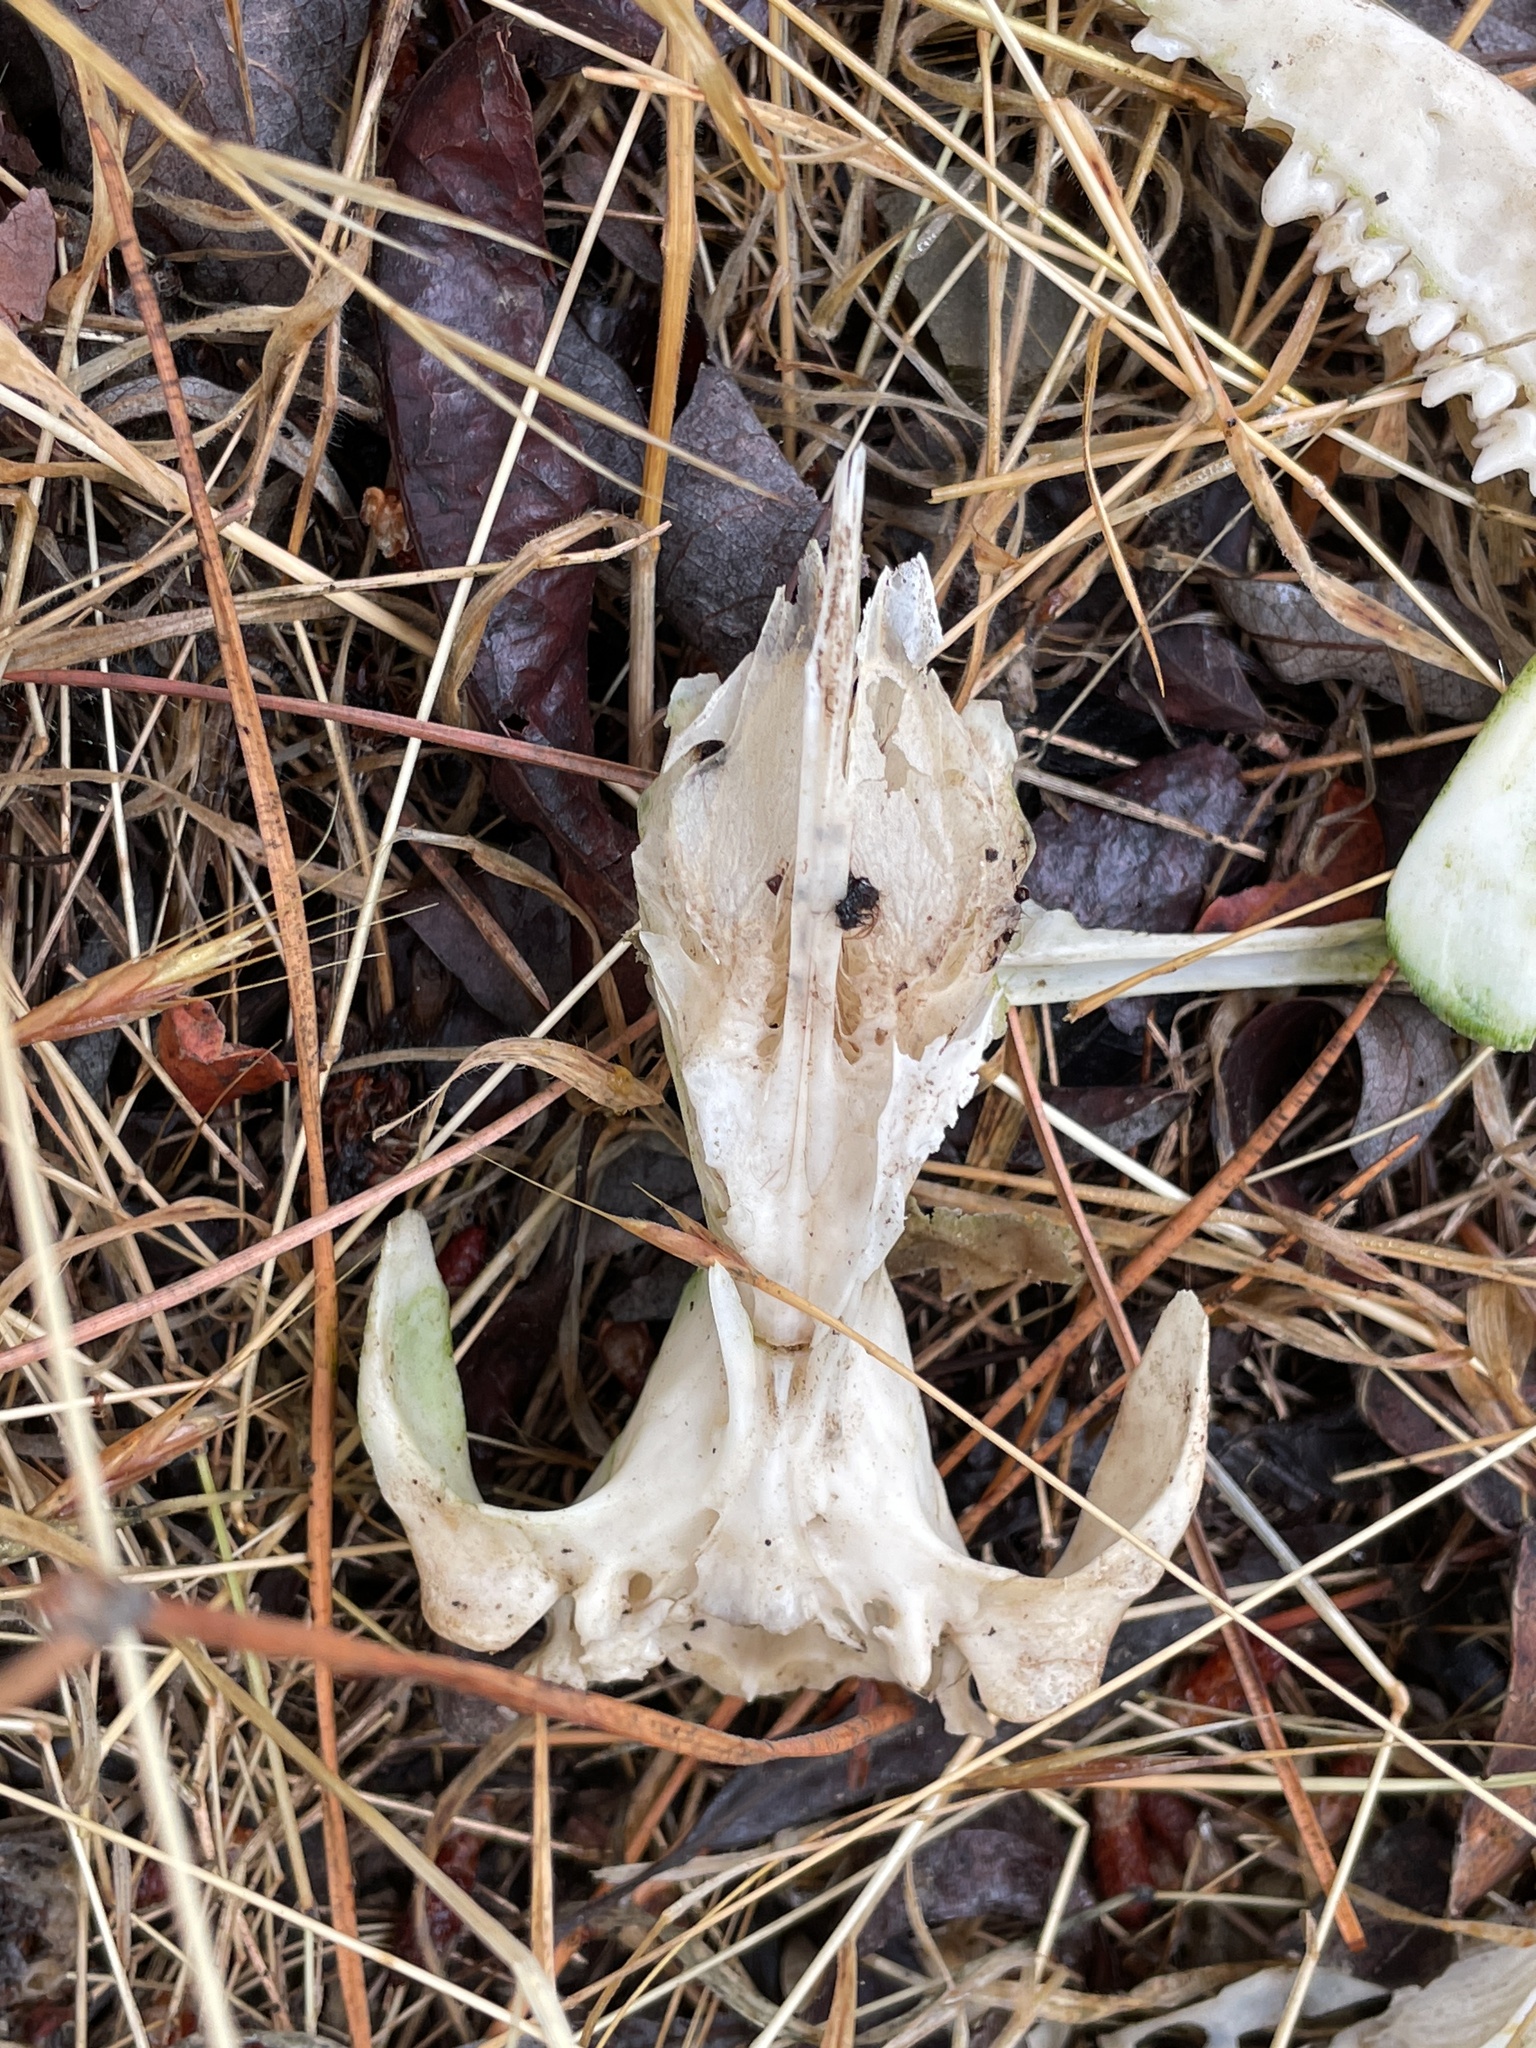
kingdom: Animalia
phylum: Chordata
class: Mammalia
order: Didelphimorphia
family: Didelphidae
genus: Didelphis
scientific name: Didelphis virginiana
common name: Virginia opossum
